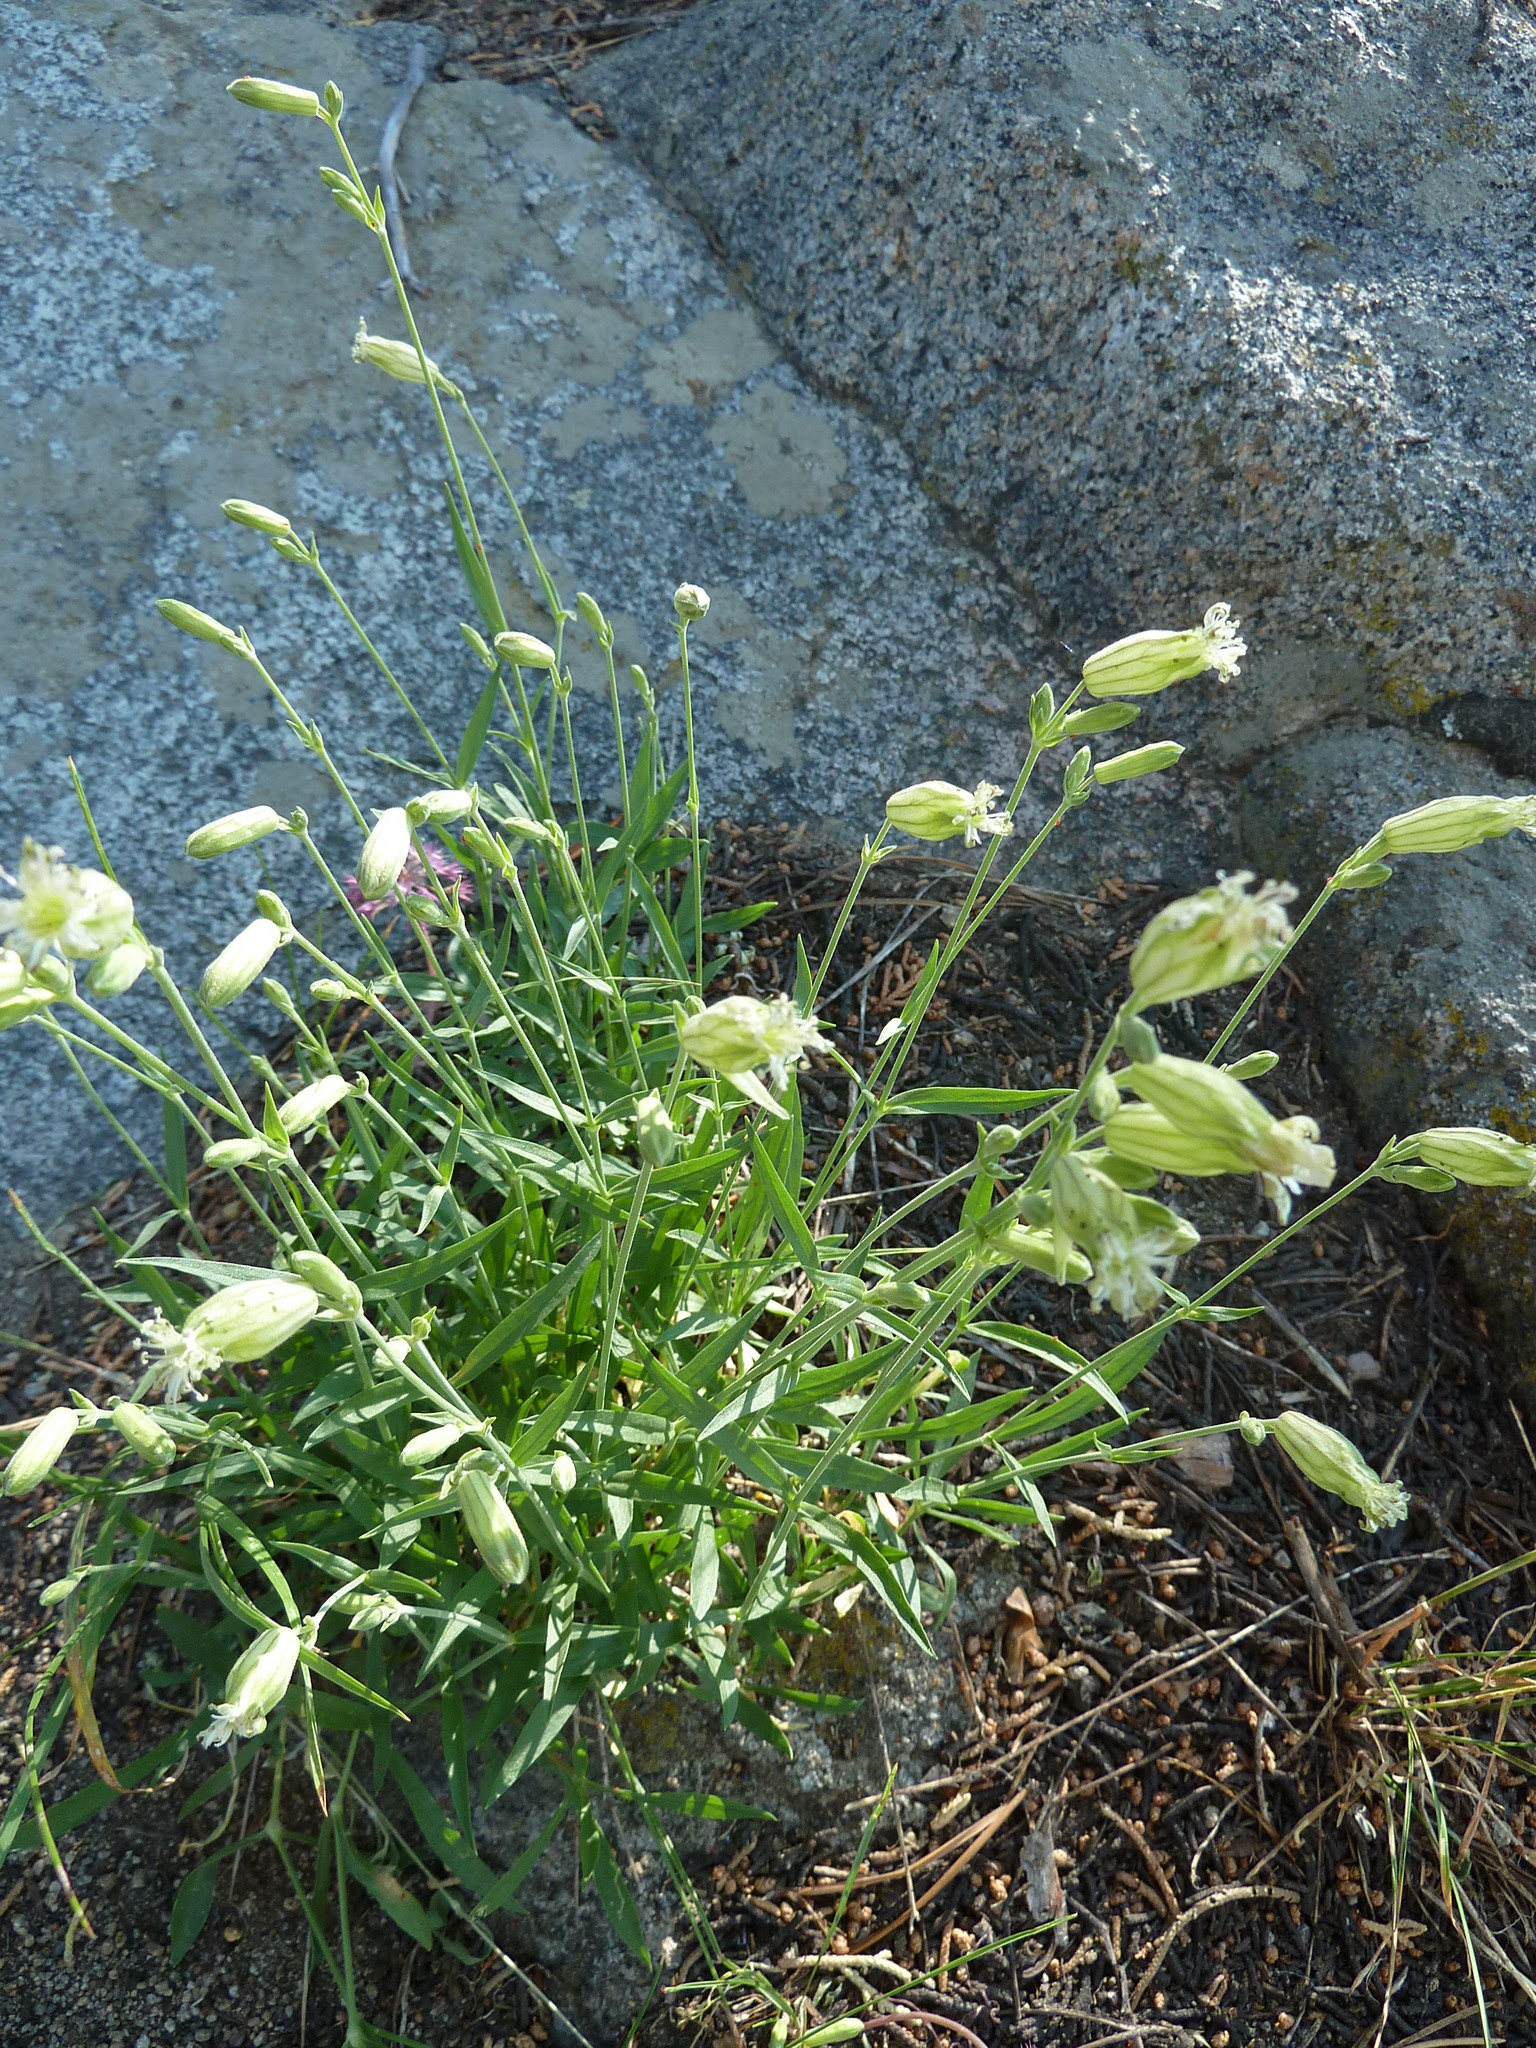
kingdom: Plantae
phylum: Tracheophyta
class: Magnoliopsida
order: Caryophyllales
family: Caryophyllaceae
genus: Silene
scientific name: Silene douglasii
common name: Douglas's catchfly
